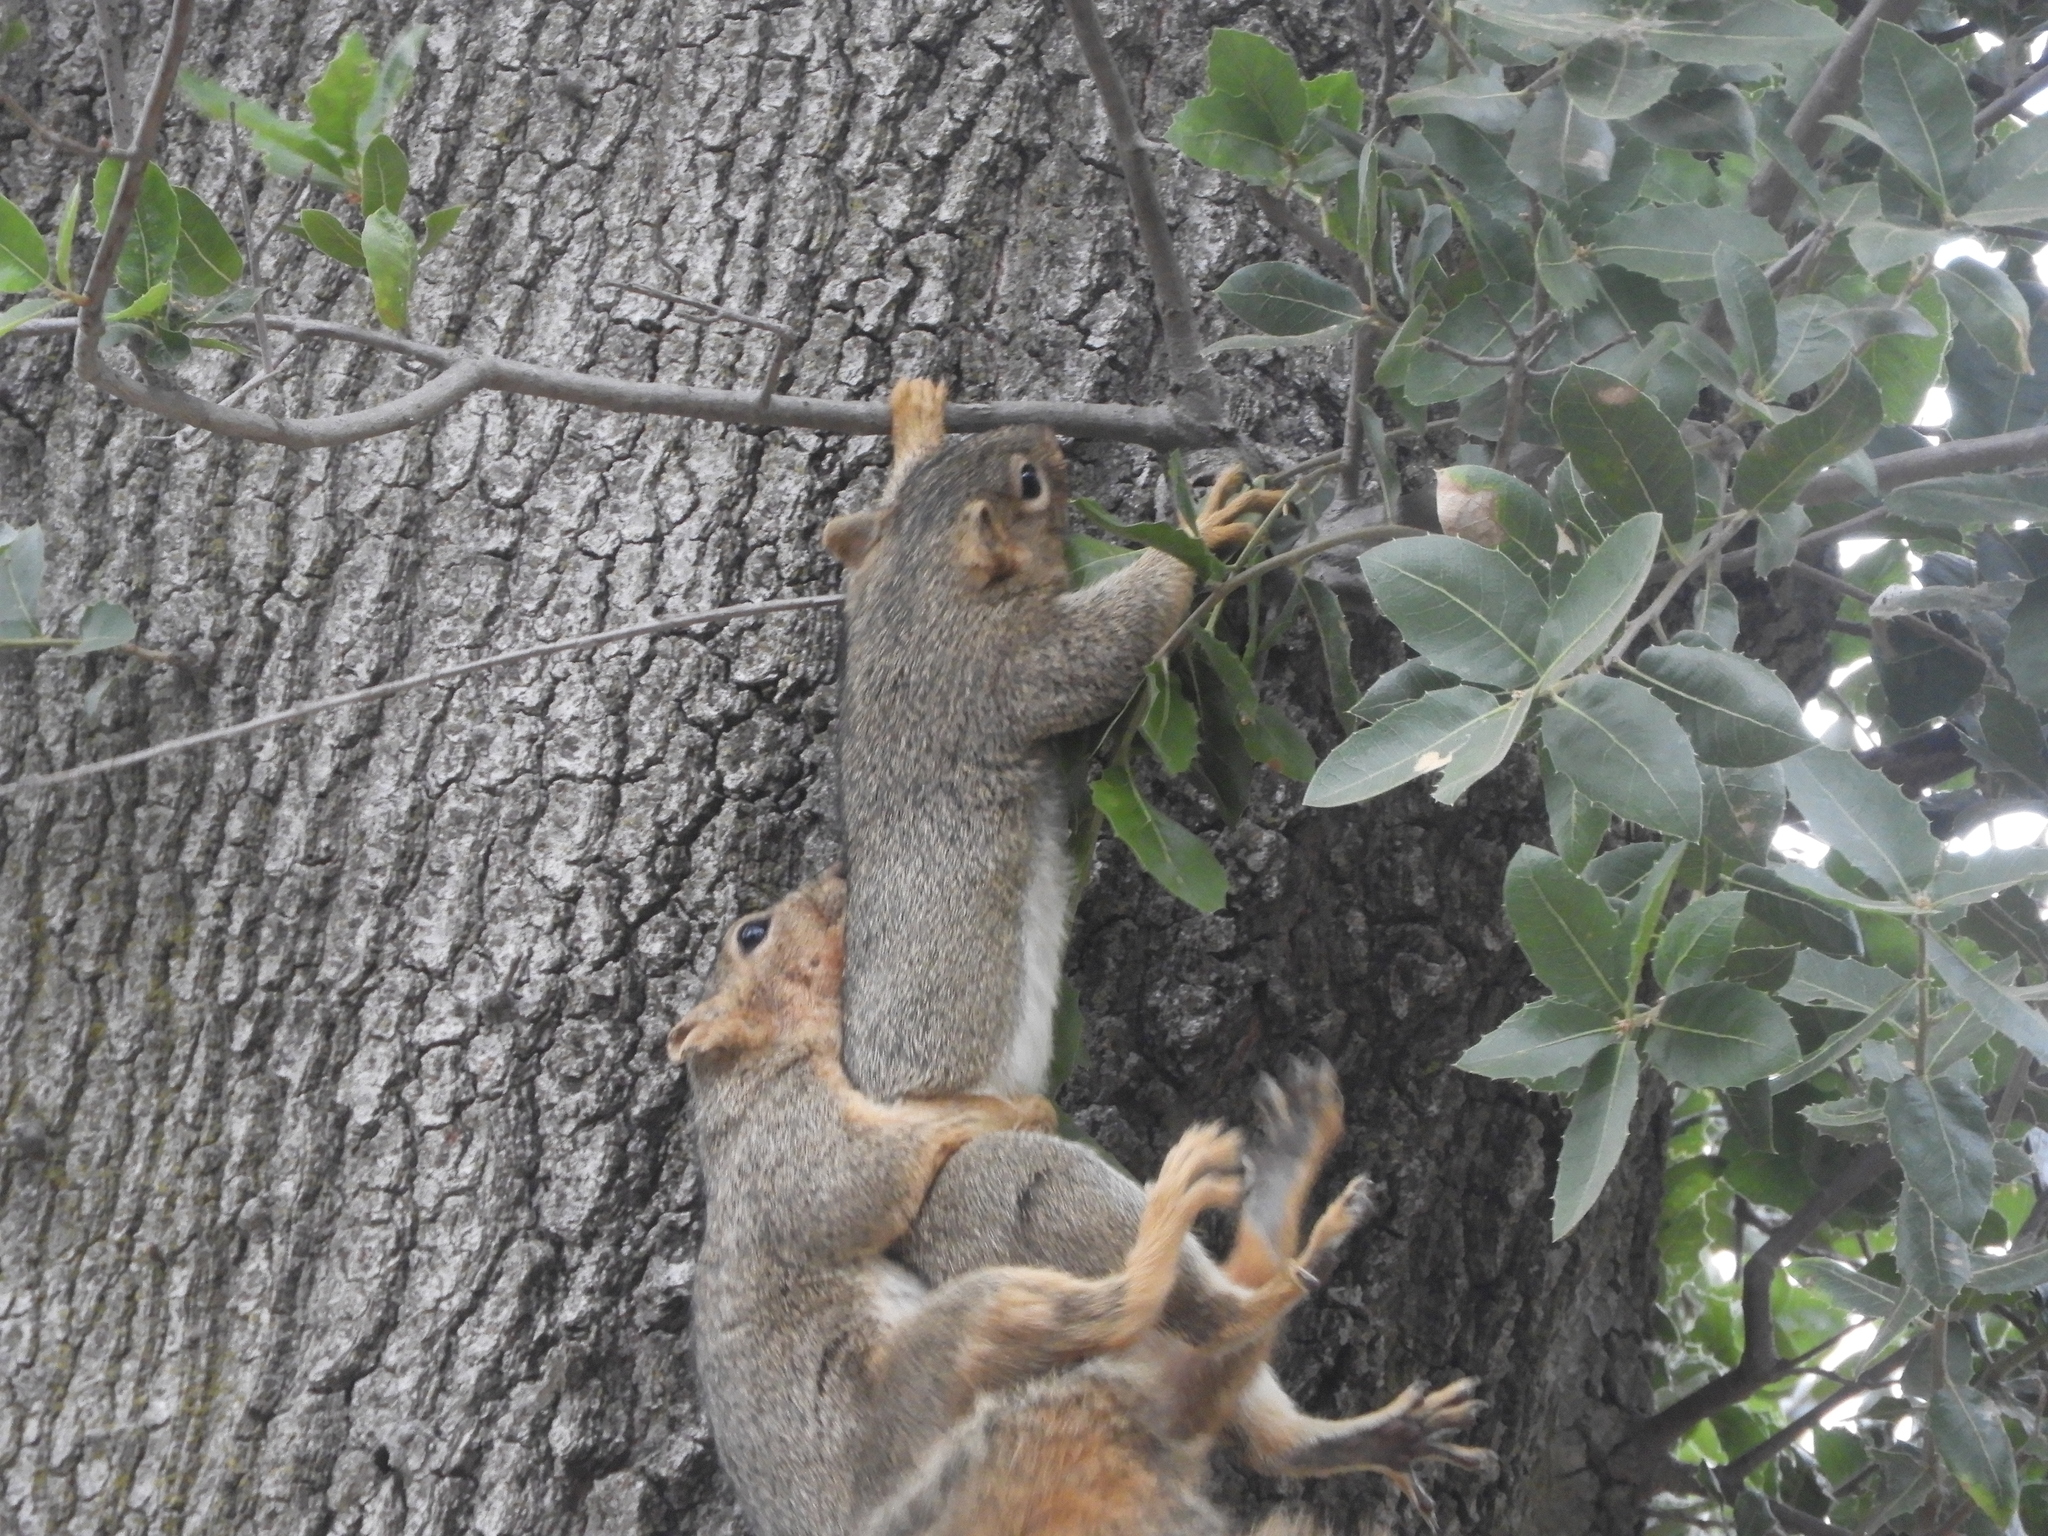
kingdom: Animalia
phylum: Chordata
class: Mammalia
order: Rodentia
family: Sciuridae
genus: Sciurus
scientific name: Sciurus niger
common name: Fox squirrel
